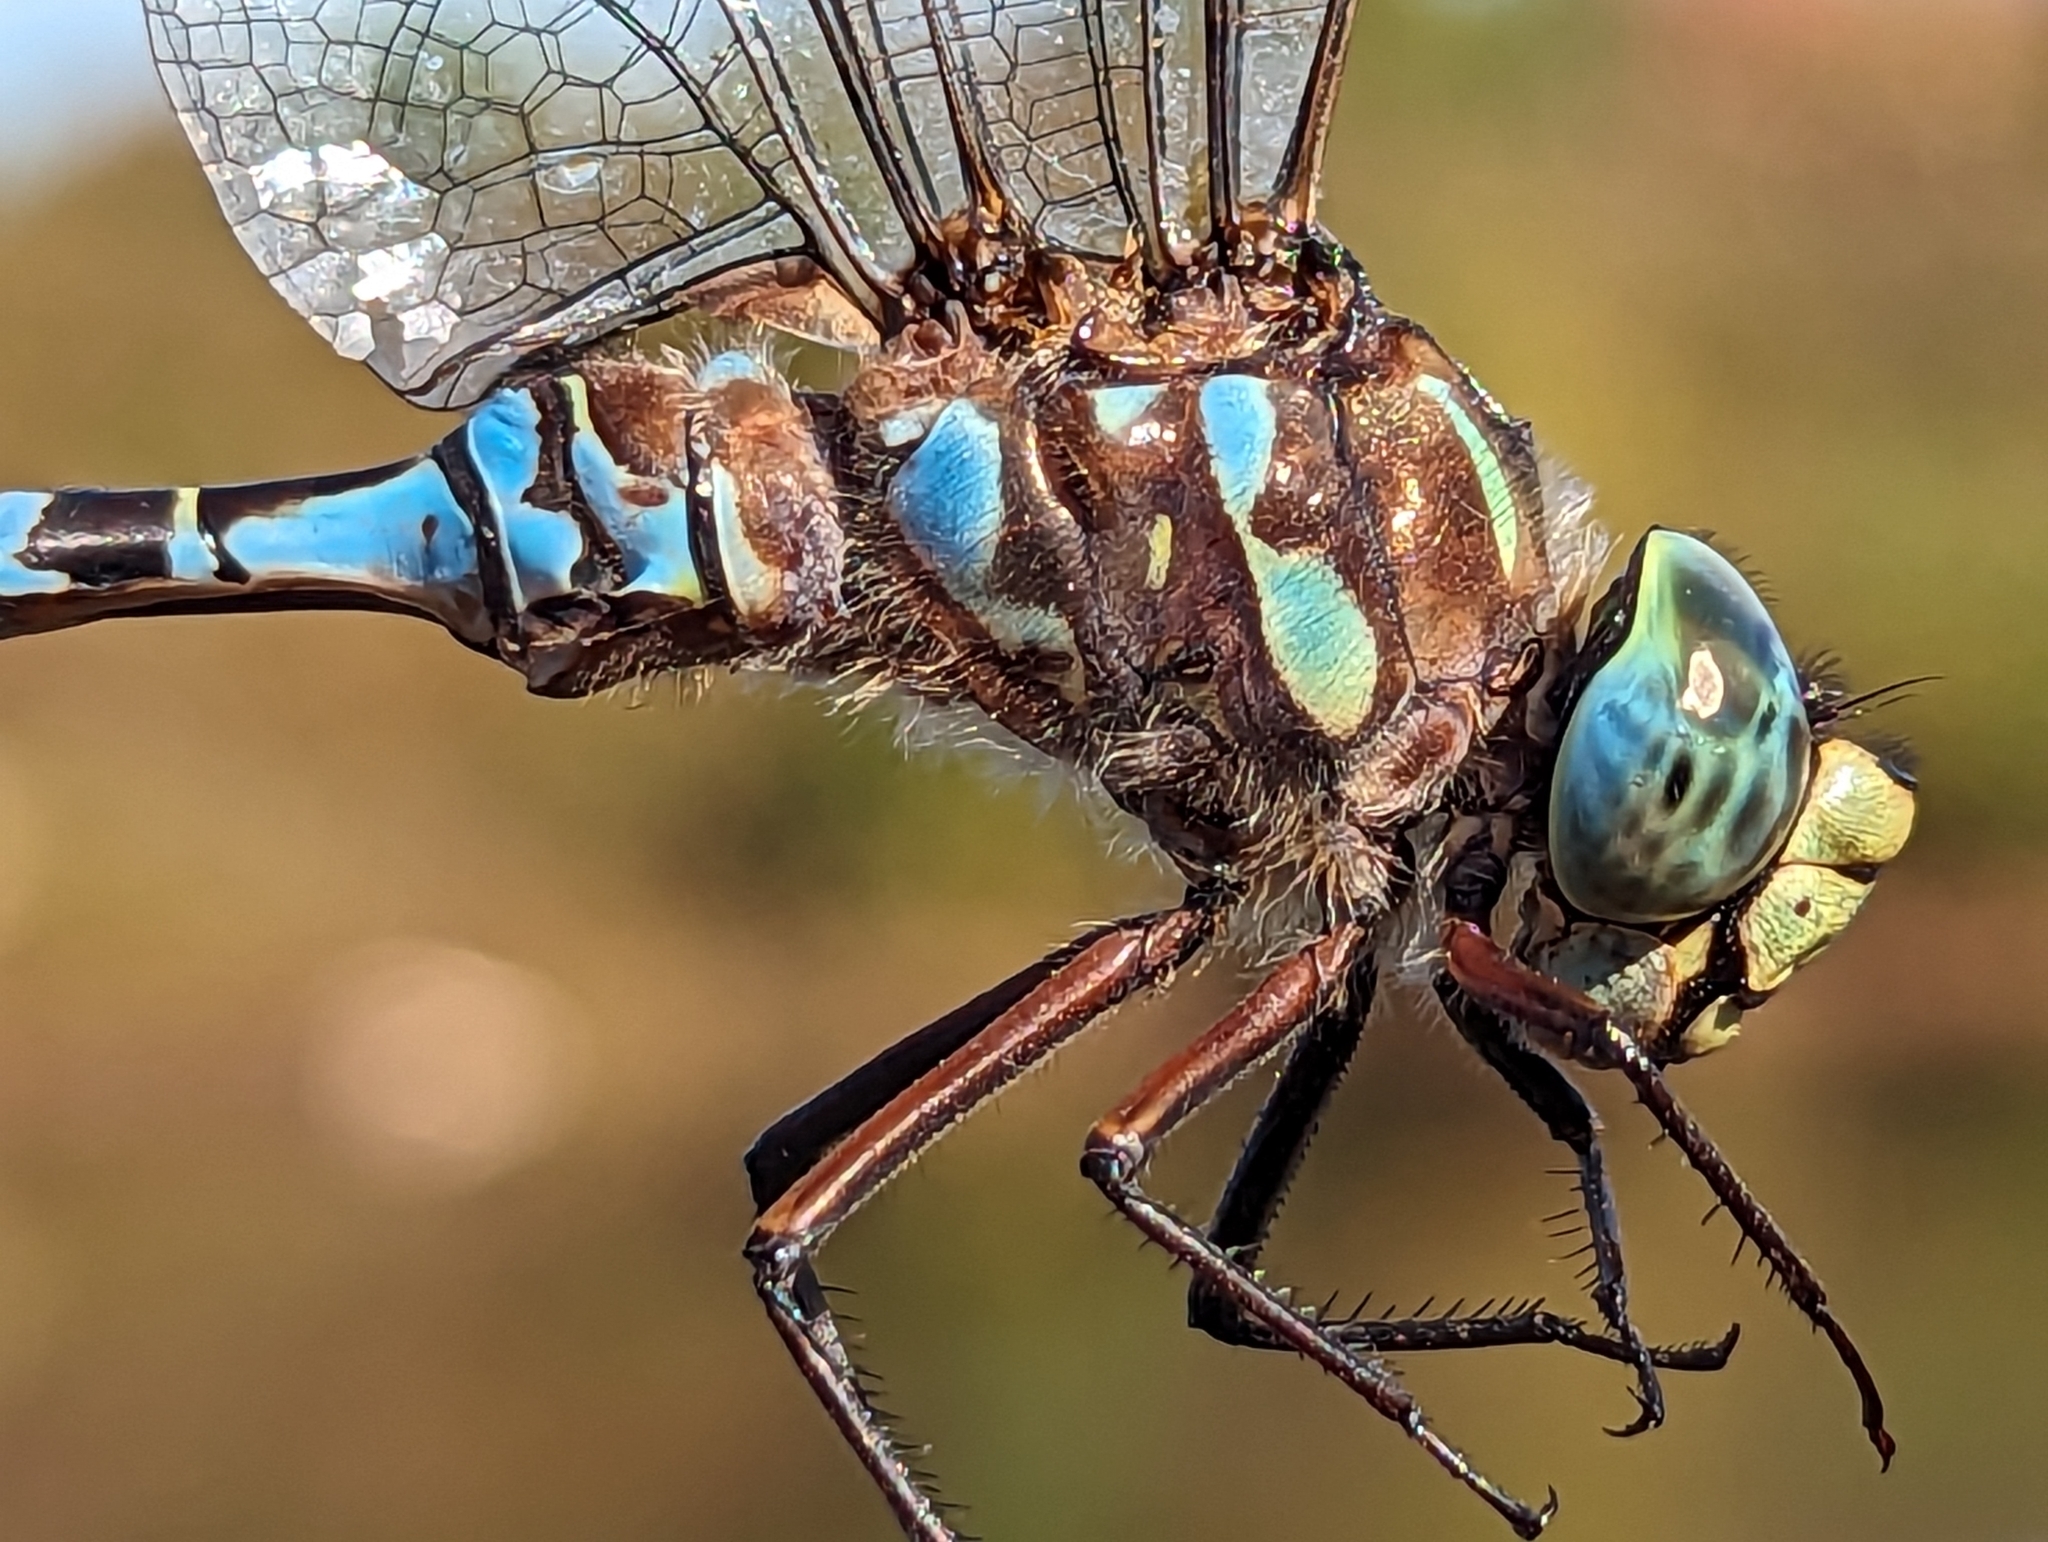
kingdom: Animalia
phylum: Arthropoda
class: Insecta
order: Odonata
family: Aeshnidae
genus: Aeshna
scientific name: Aeshna eremita
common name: Lake darner
